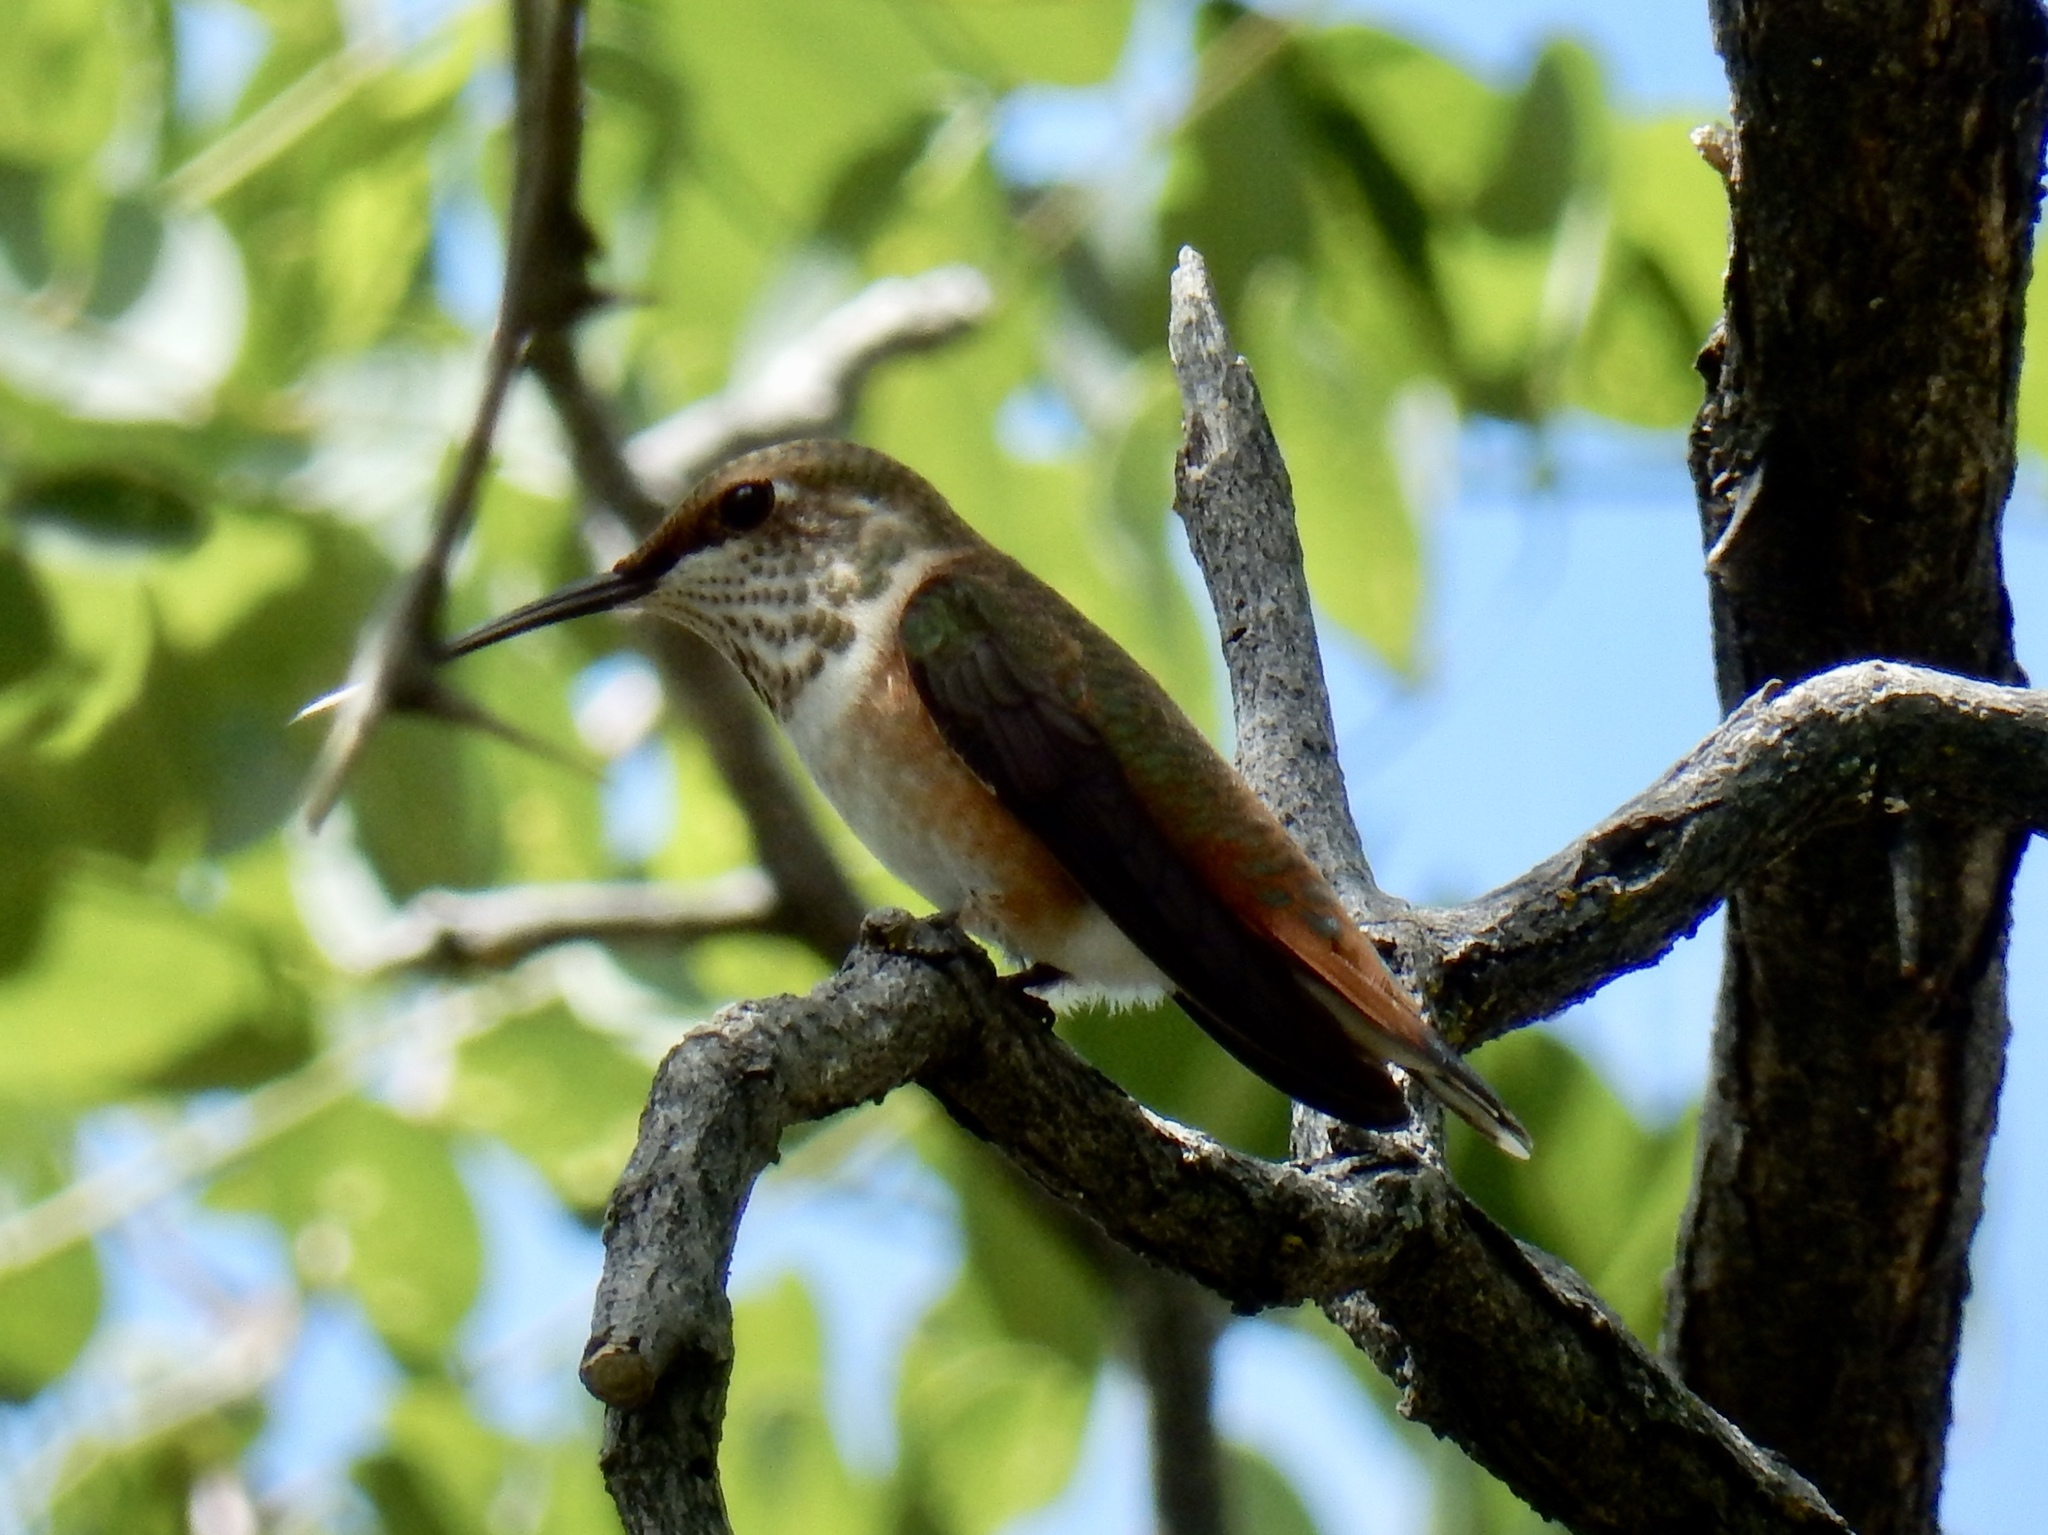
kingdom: Animalia
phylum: Chordata
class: Aves
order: Apodiformes
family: Trochilidae
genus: Selasphorus
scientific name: Selasphorus rufus
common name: Rufous hummingbird
